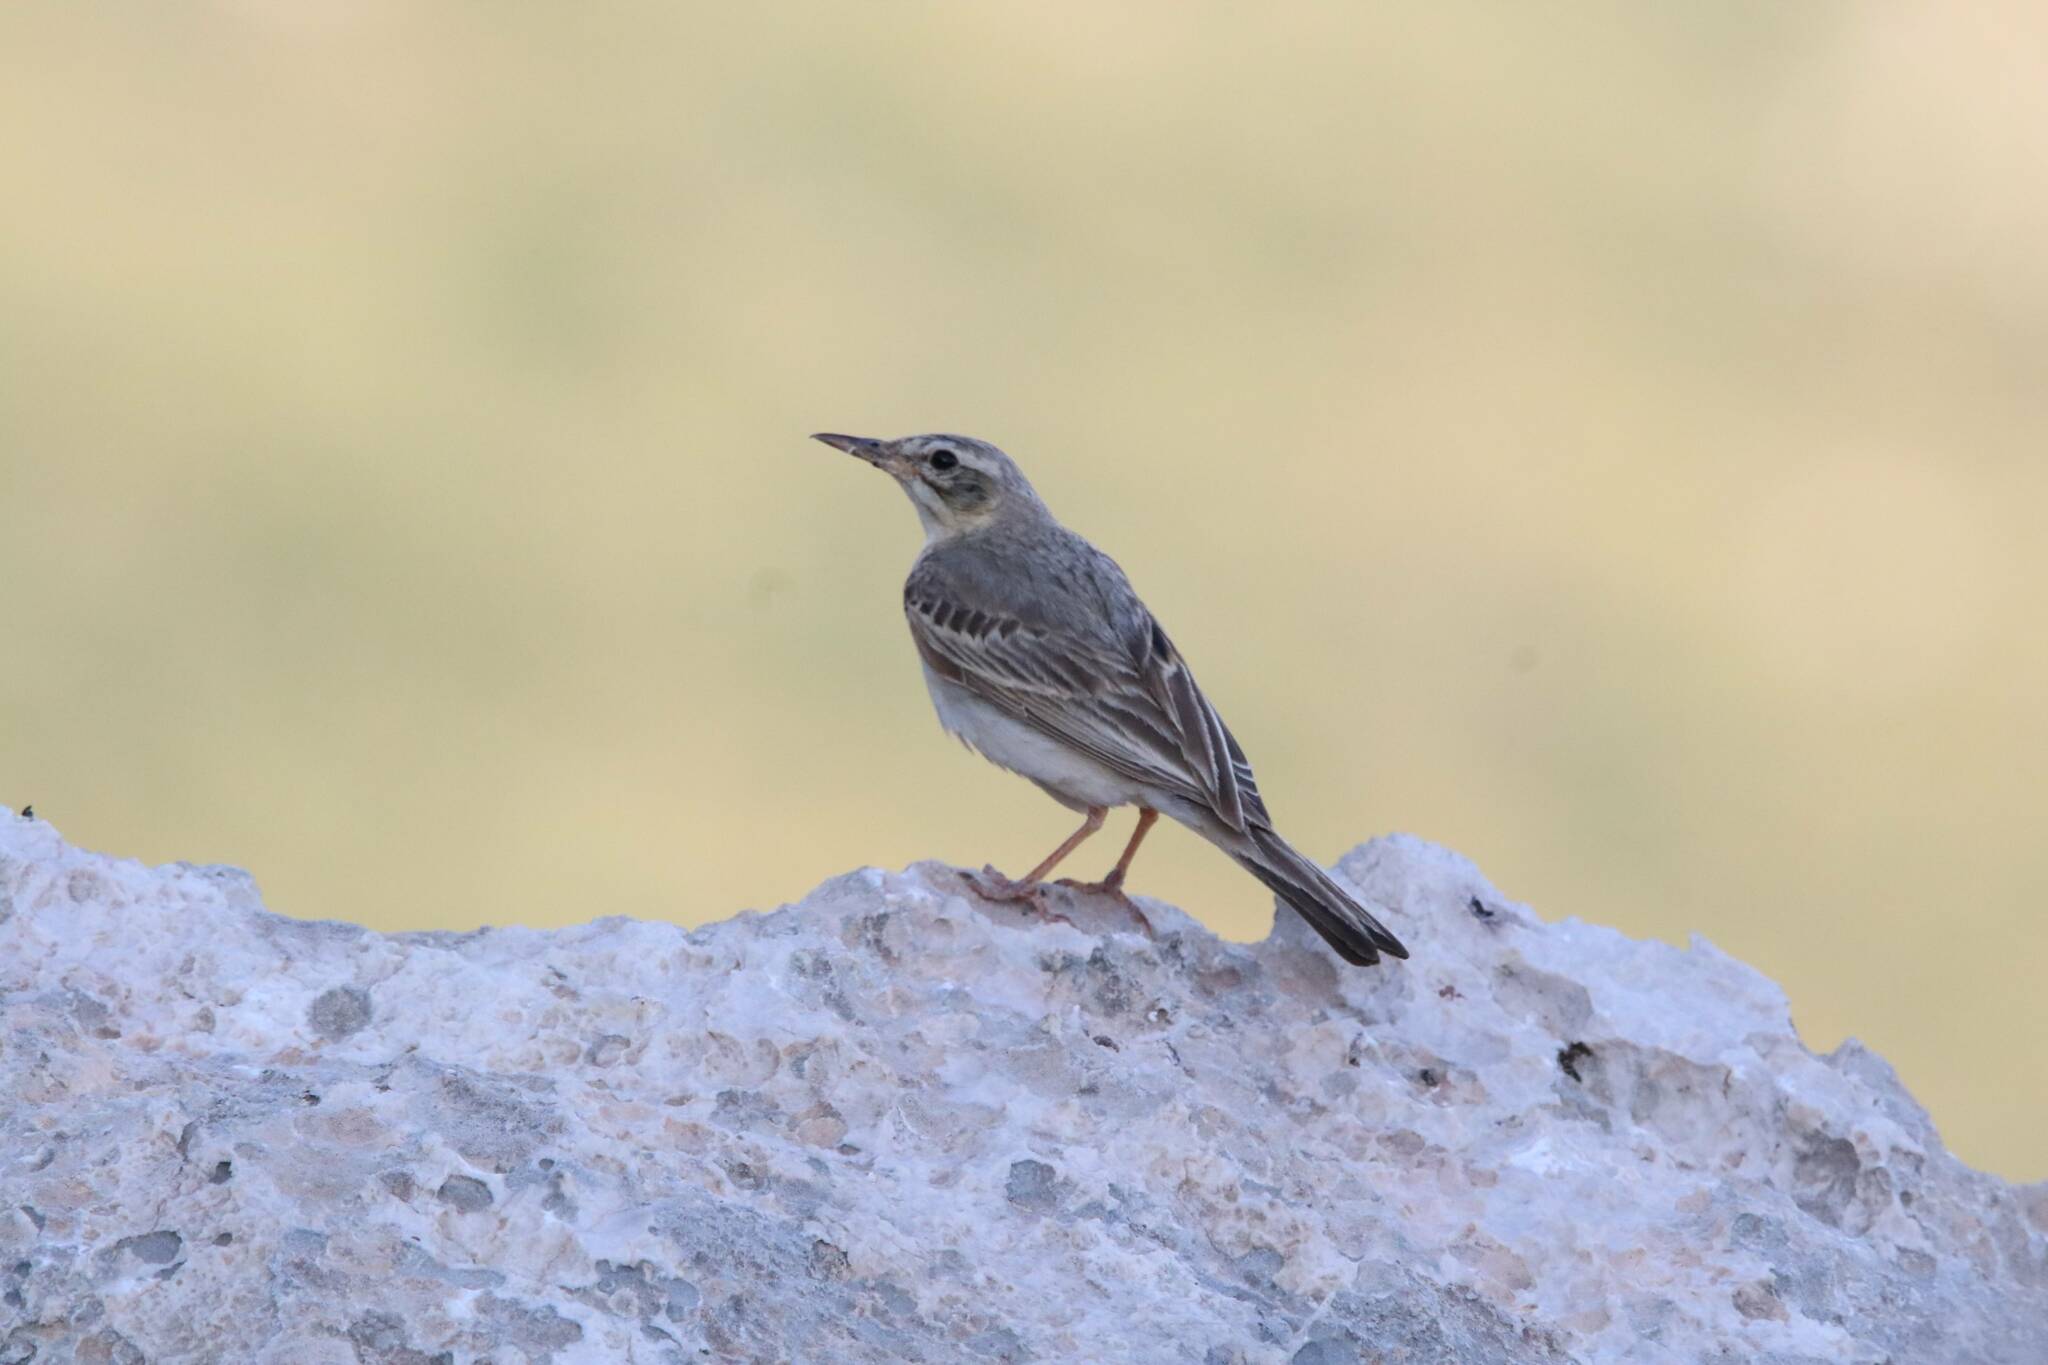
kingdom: Animalia
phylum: Chordata
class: Aves
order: Passeriformes
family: Motacillidae
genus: Anthus
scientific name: Anthus campestris
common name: Tawny pipit
